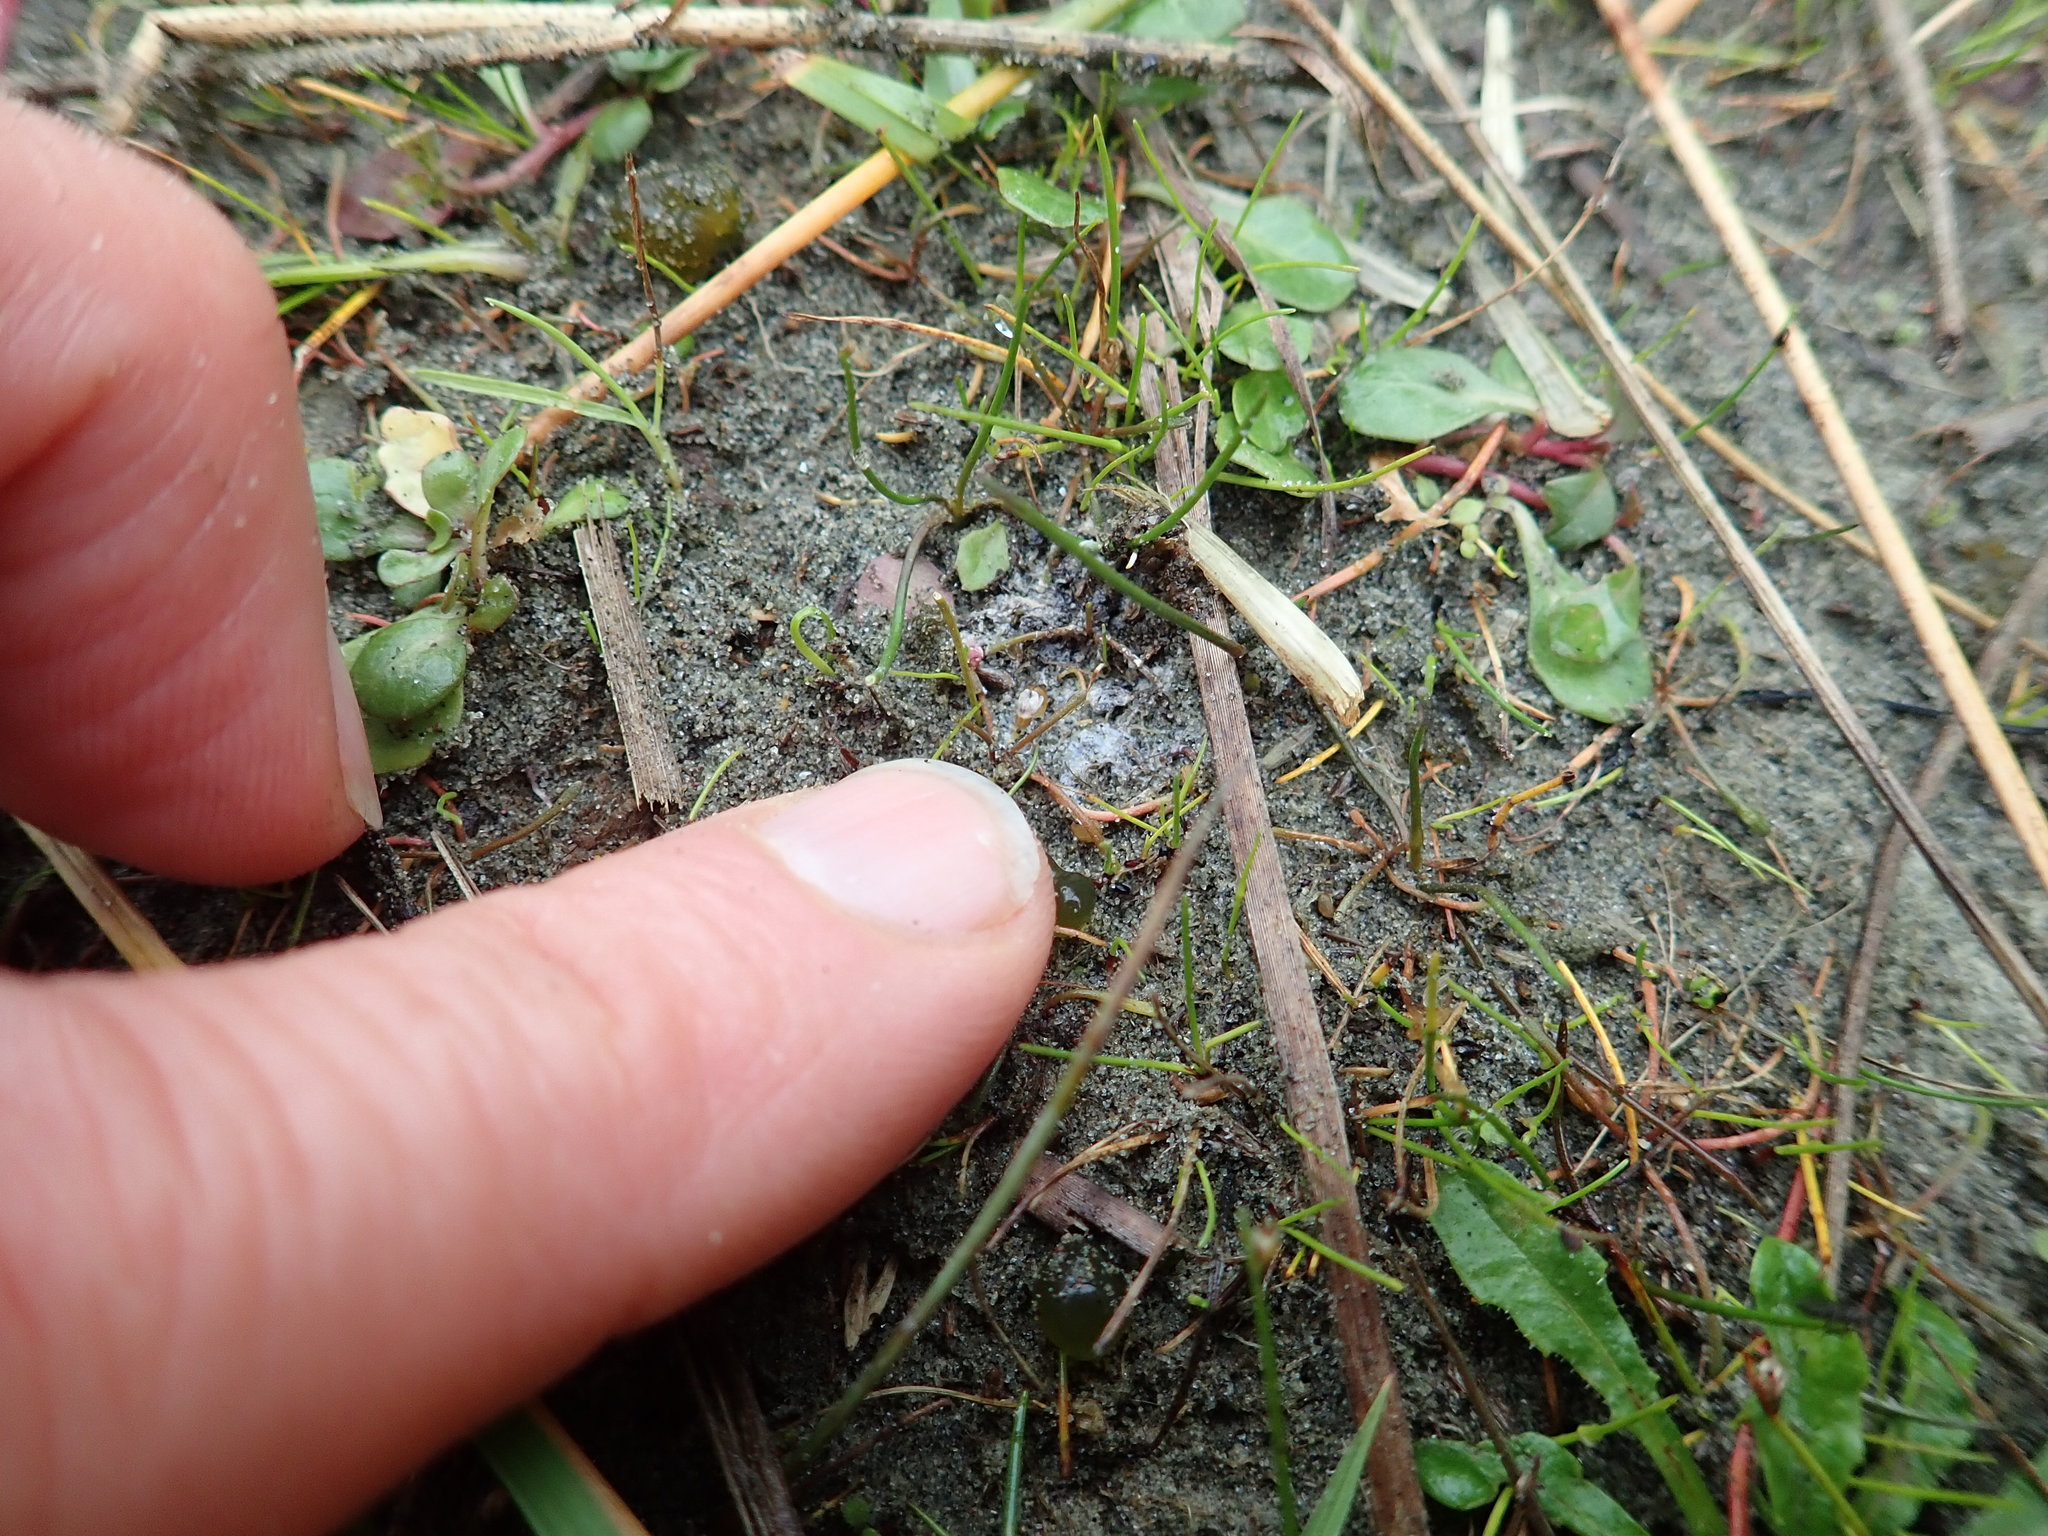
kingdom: Plantae
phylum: Tracheophyta
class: Magnoliopsida
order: Asterales
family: Campanulaceae
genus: Lobelia
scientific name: Lobelia anceps
